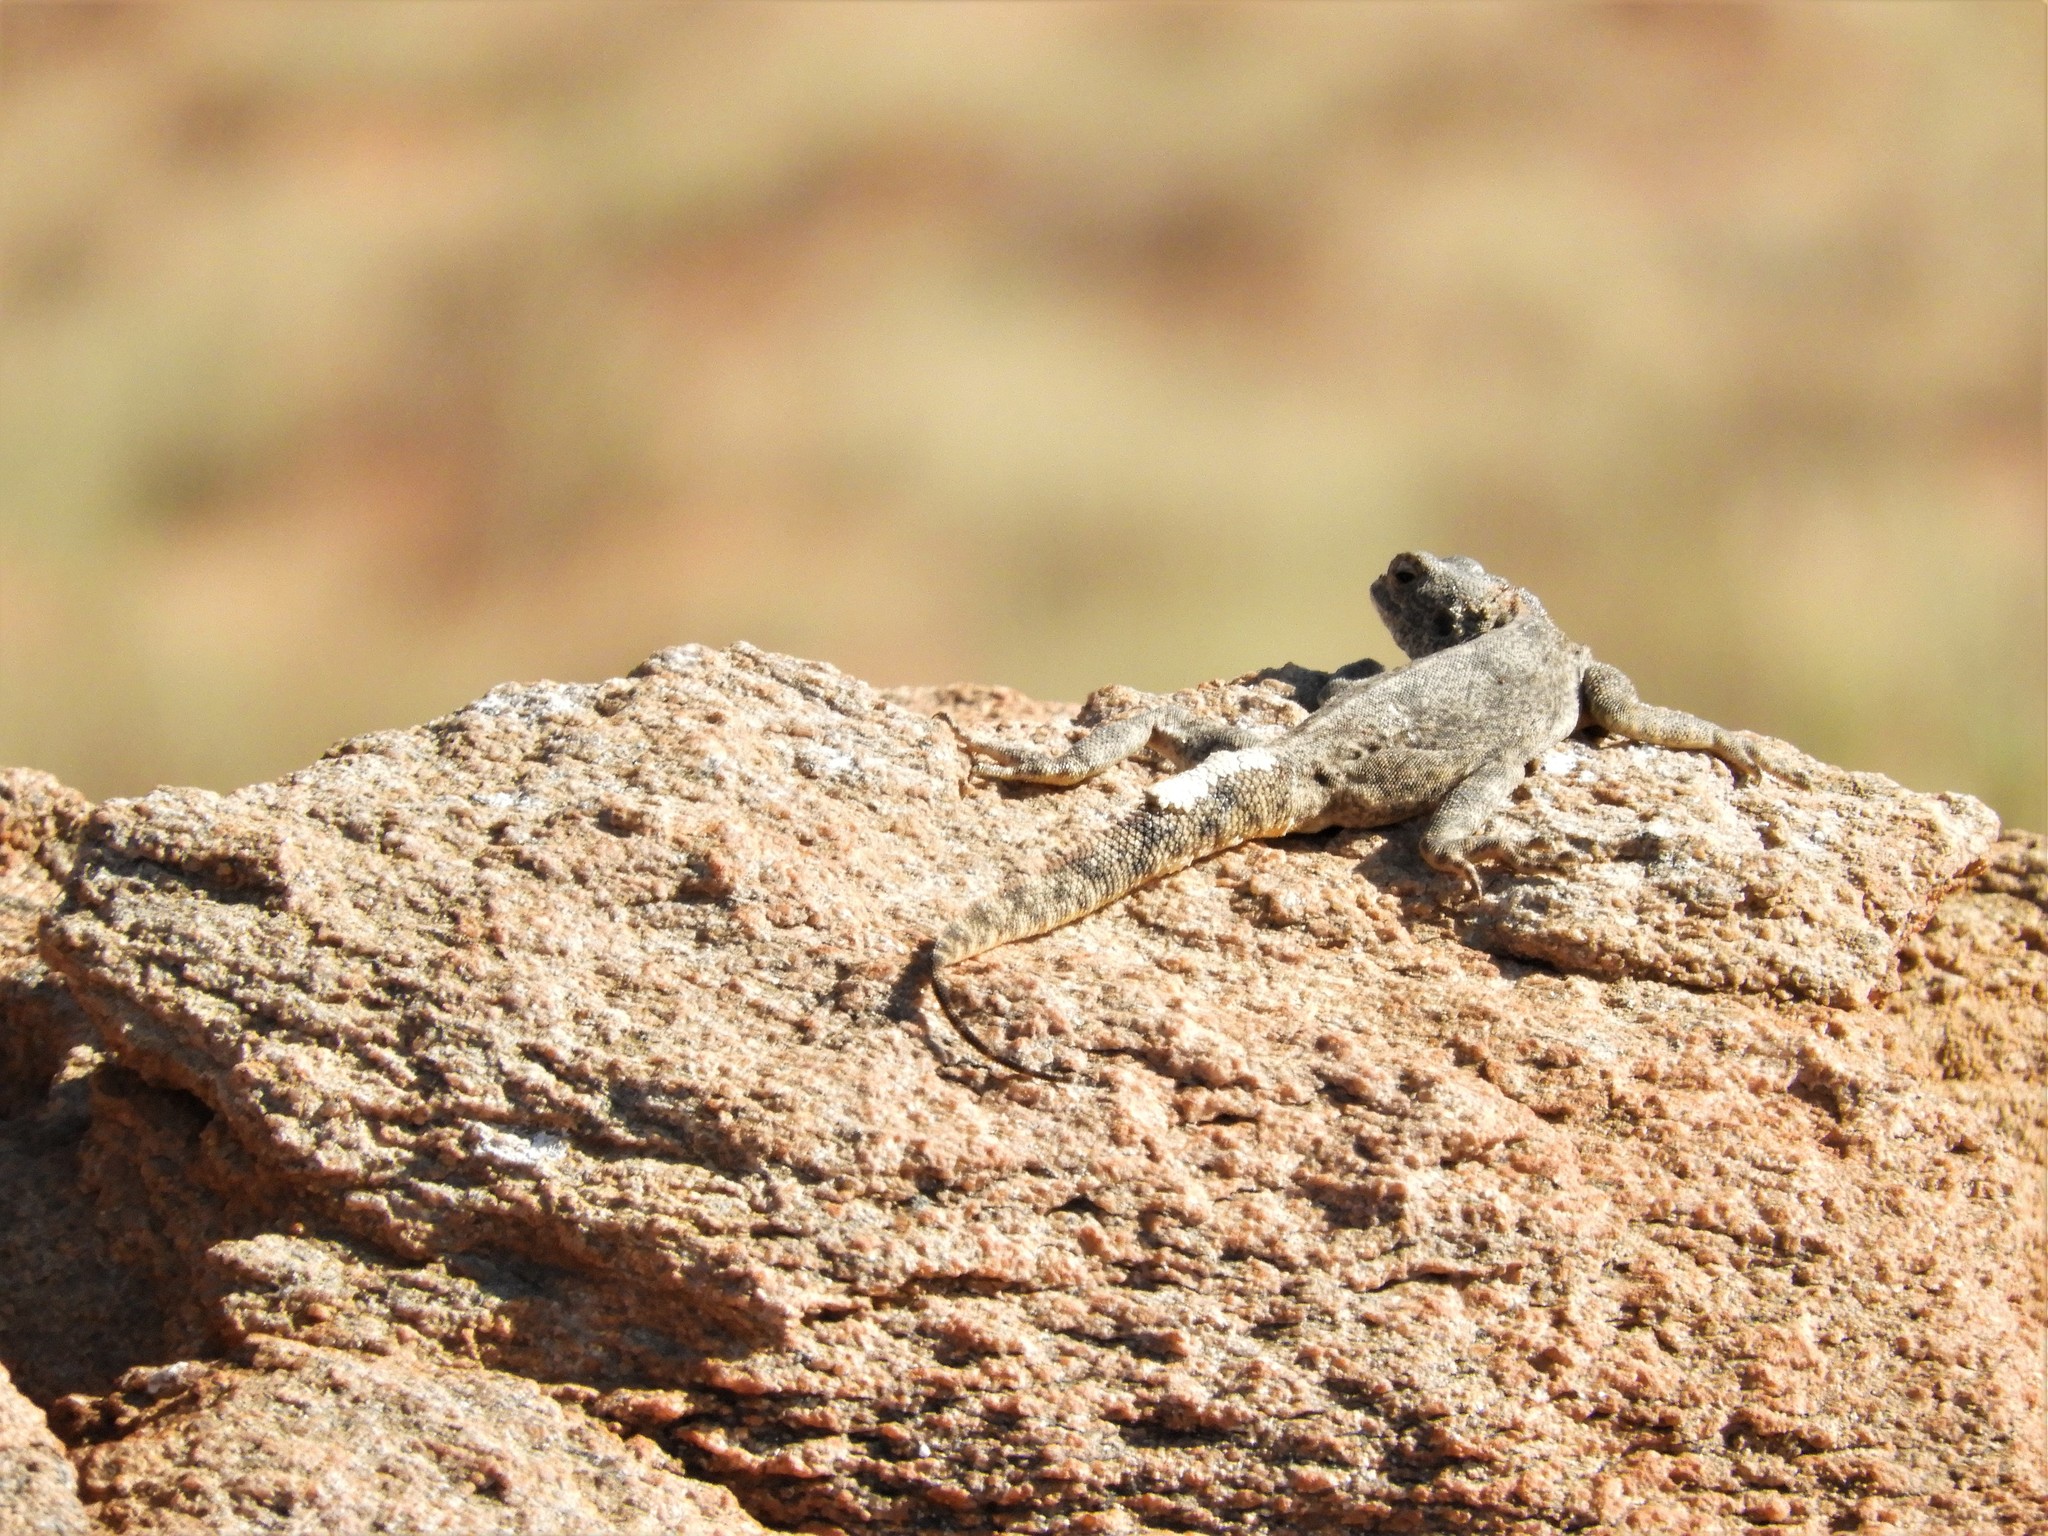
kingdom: Animalia
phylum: Chordata
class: Squamata
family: Agamidae
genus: Agama
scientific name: Agama atra
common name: Southern african rock agama
